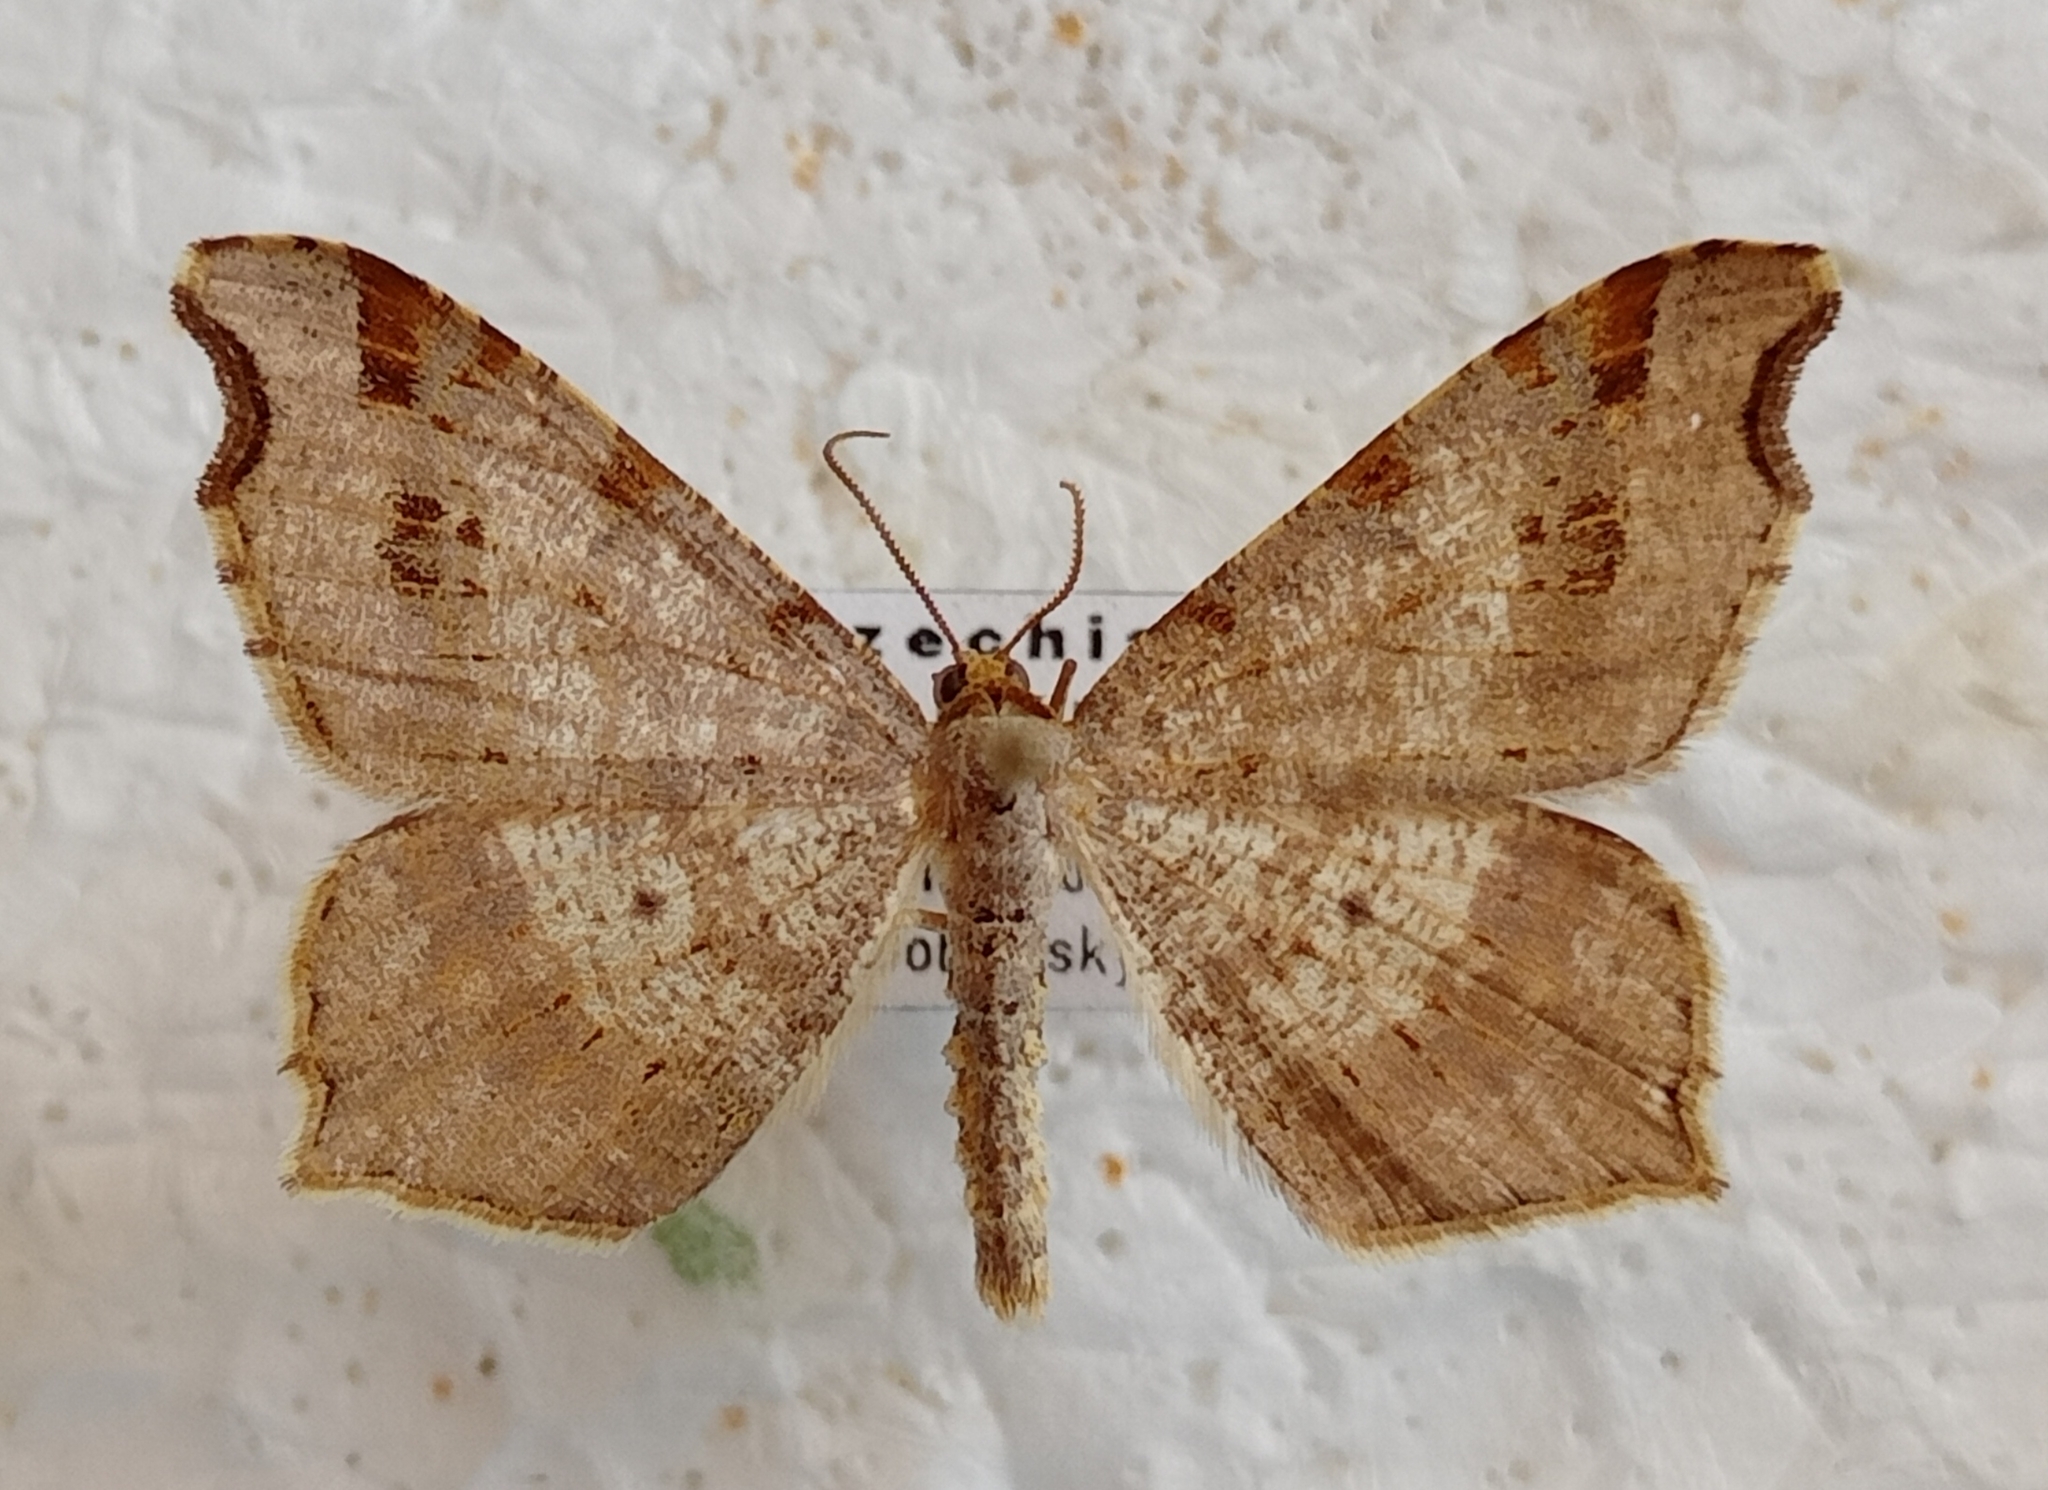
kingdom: Animalia
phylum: Arthropoda
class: Insecta
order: Lepidoptera
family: Geometridae
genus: Macaria
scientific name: Macaria alternata
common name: Sharp-angled peacock
